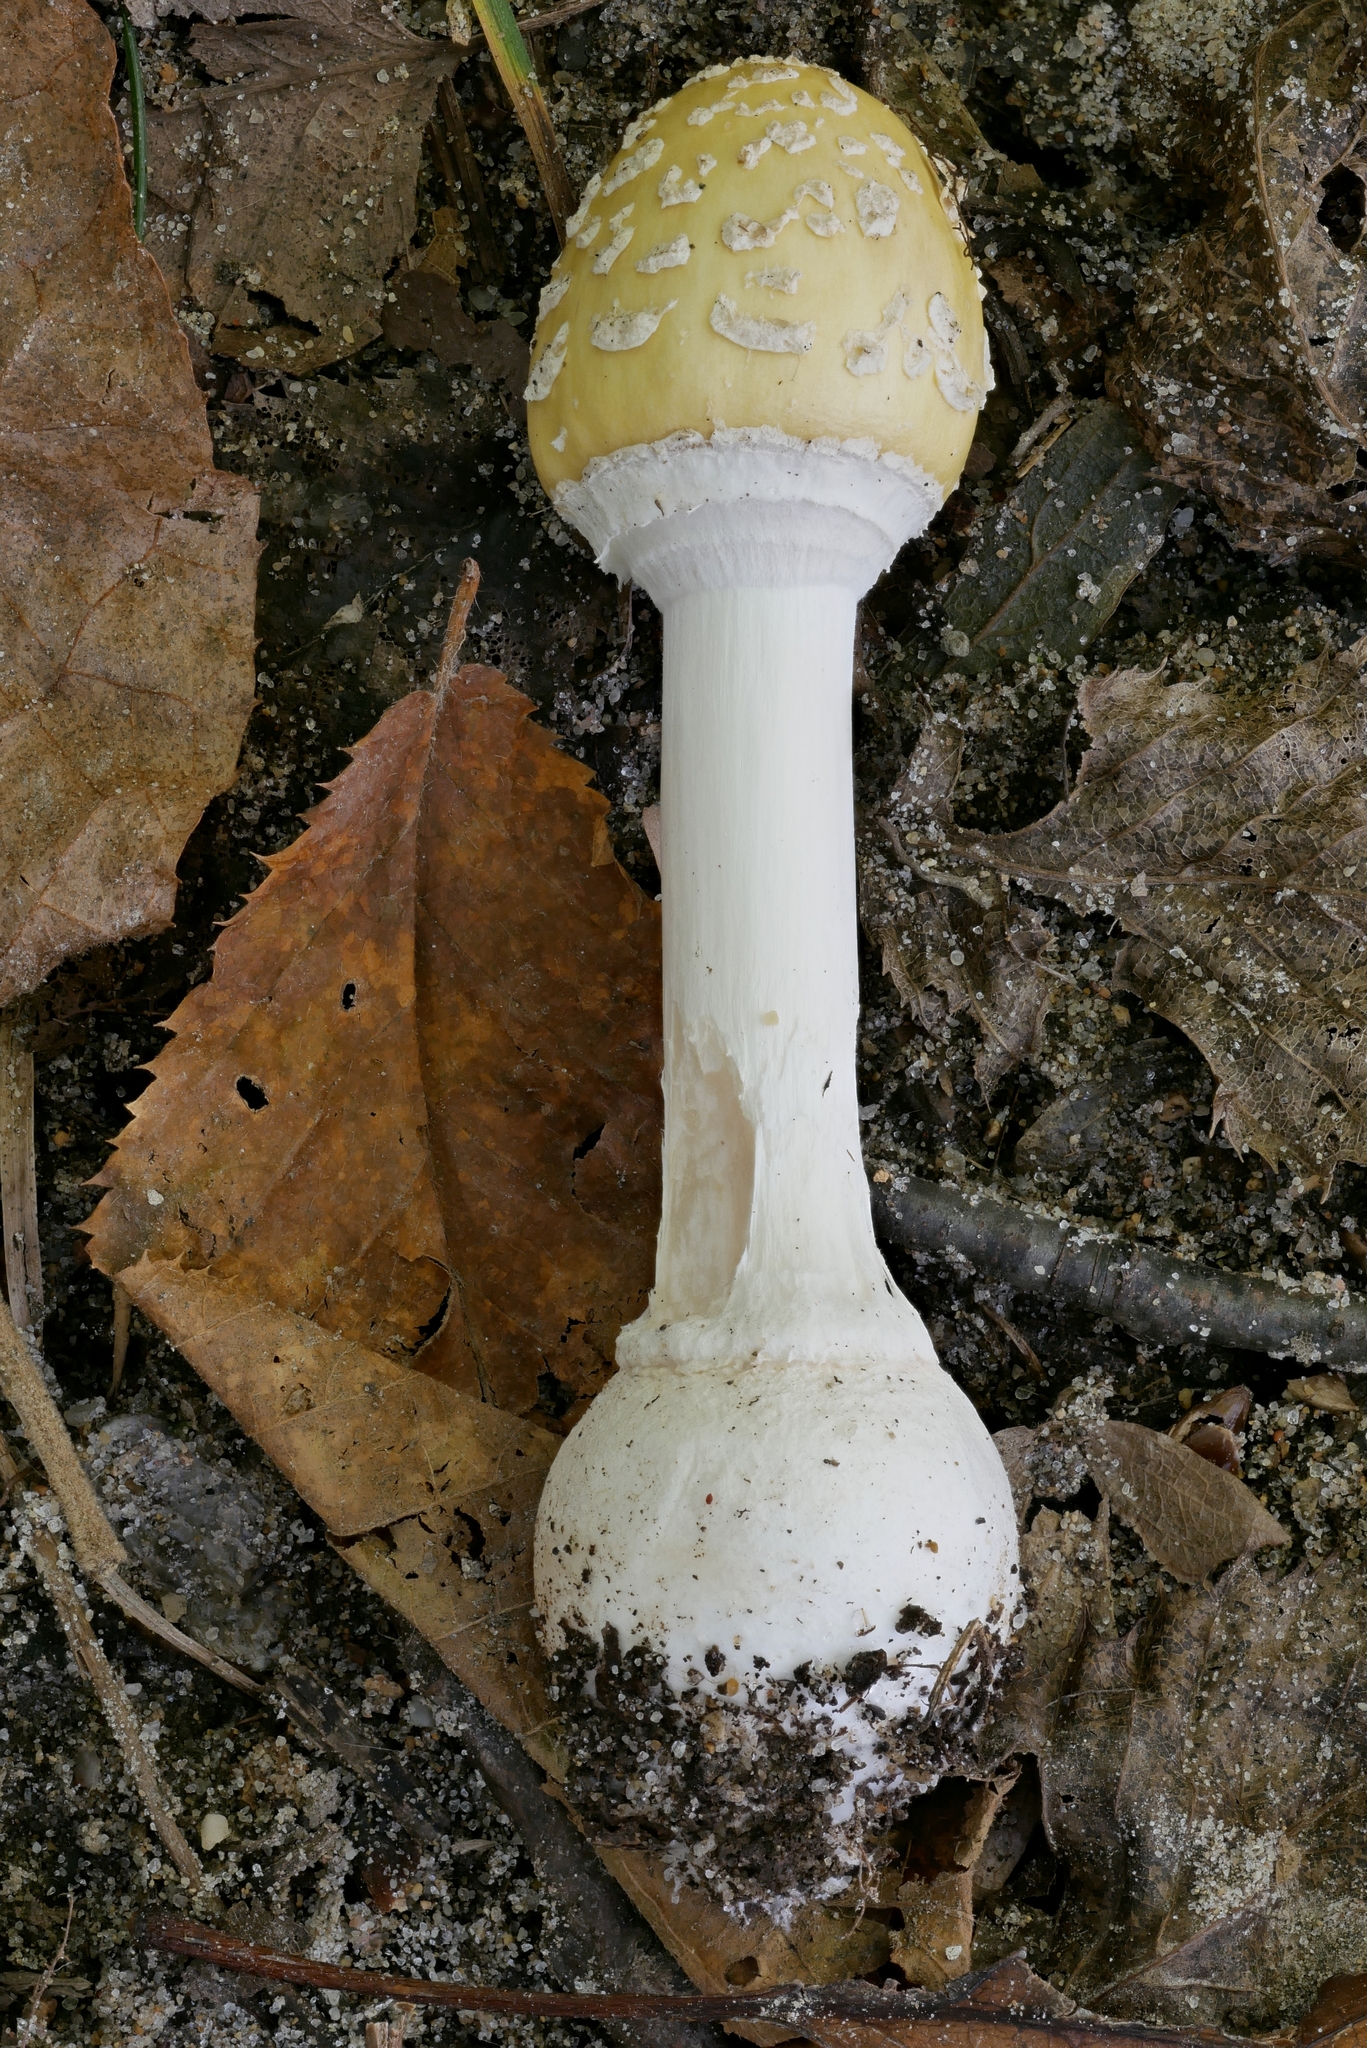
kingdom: Fungi
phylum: Basidiomycota
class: Agaricomycetes
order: Agaricales
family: Amanitaceae
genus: Amanita
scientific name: Amanita multisquamosa
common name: Small funnel-veil amanita
